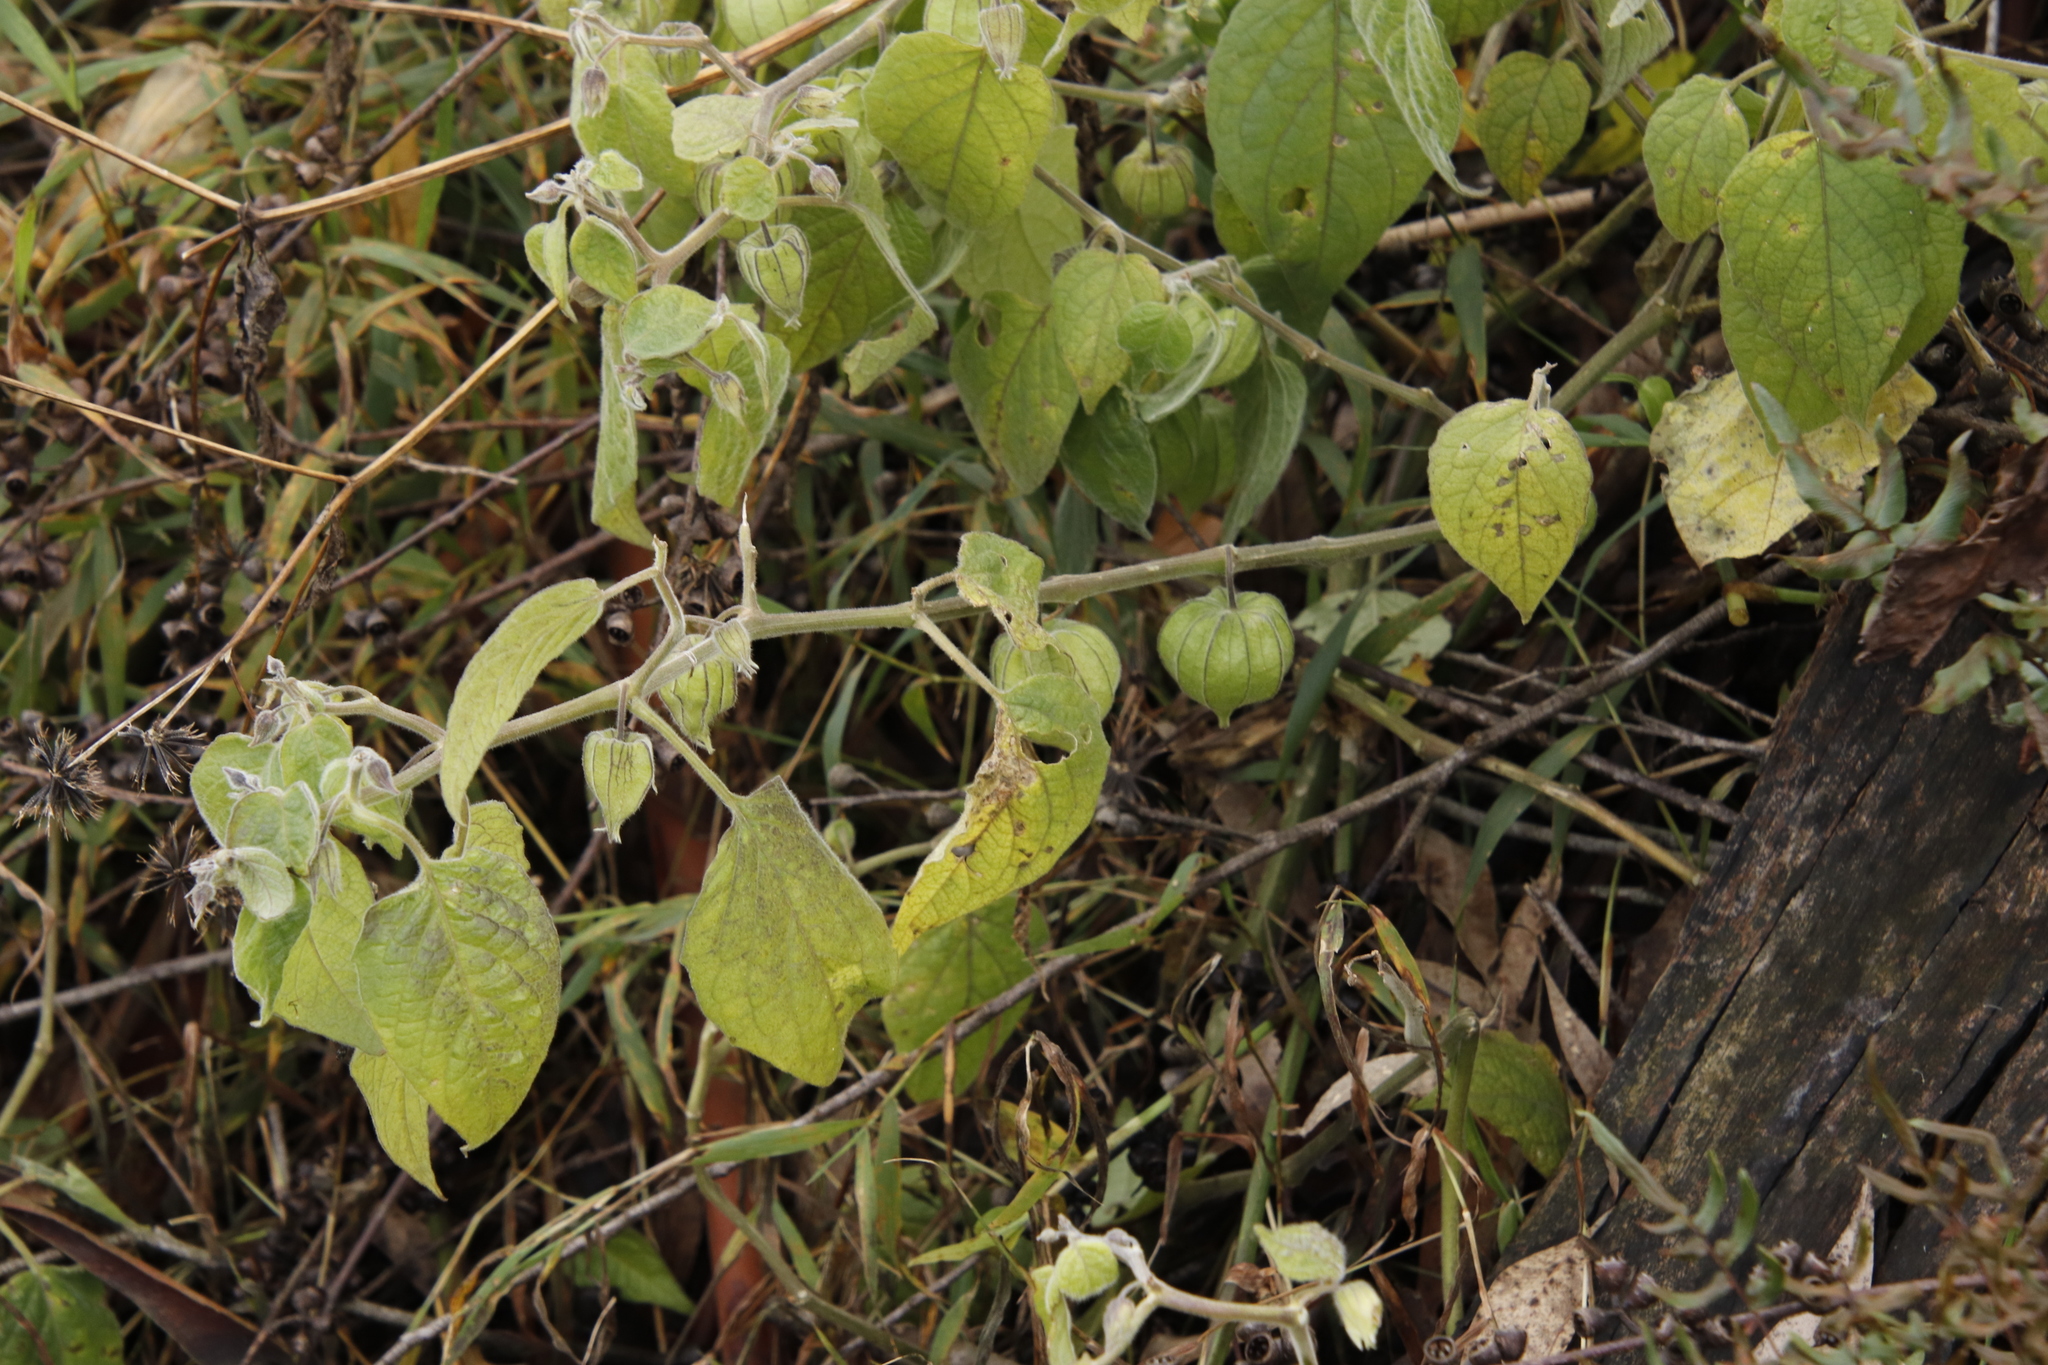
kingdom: Plantae
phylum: Tracheophyta
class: Magnoliopsida
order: Solanales
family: Solanaceae
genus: Physalis
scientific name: Physalis peruviana
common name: Cape-gooseberry
